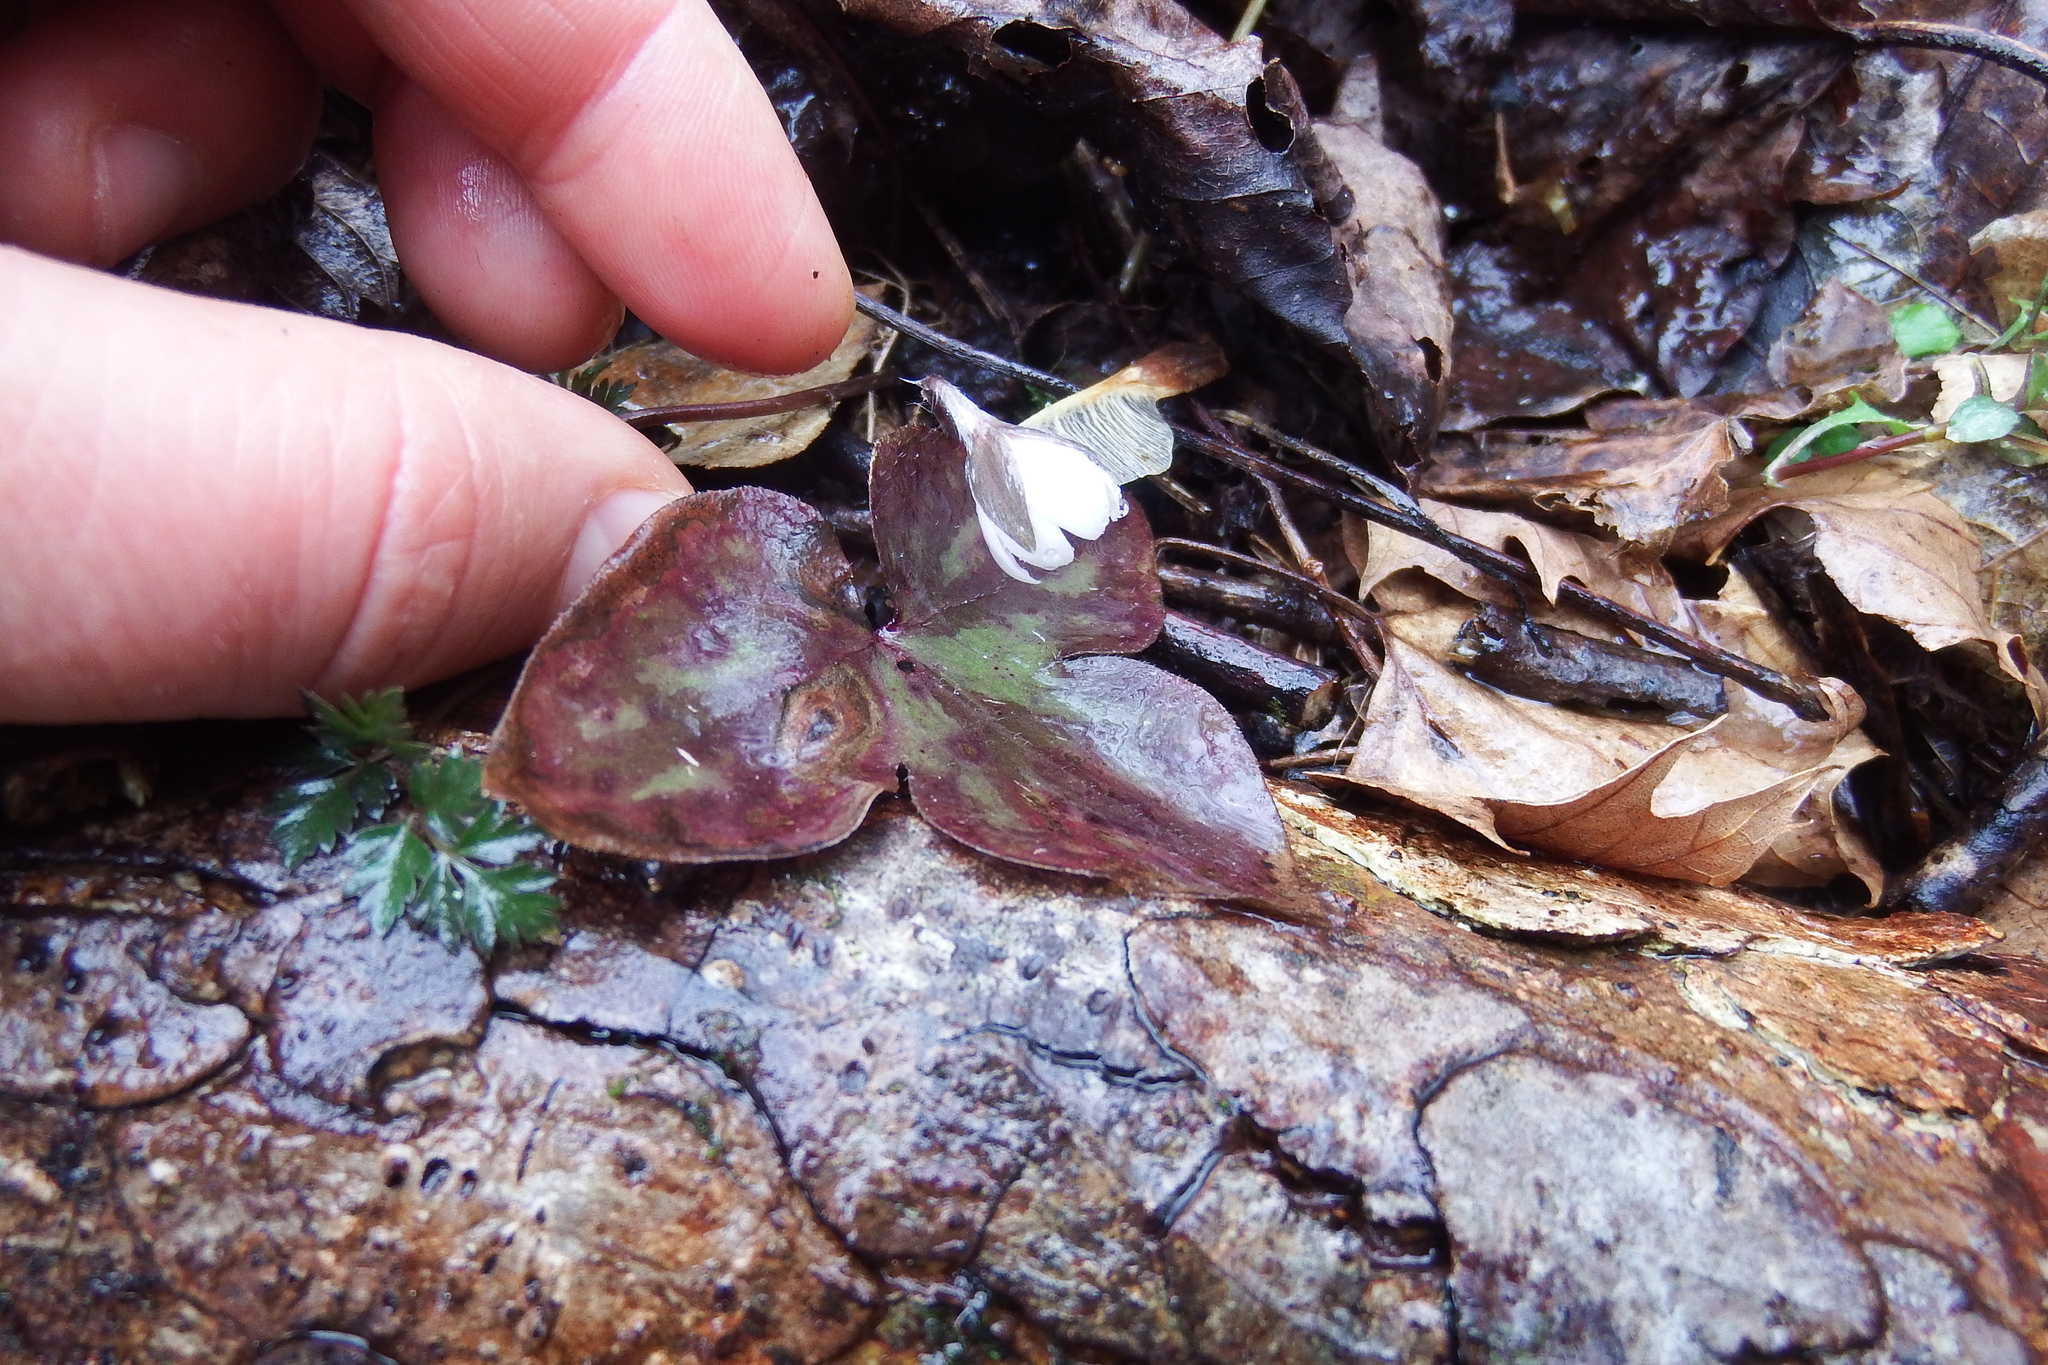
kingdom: Plantae
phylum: Tracheophyta
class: Magnoliopsida
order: Ranunculales
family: Ranunculaceae
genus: Hepatica
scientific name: Hepatica acutiloba
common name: Sharp-lobed hepatica
